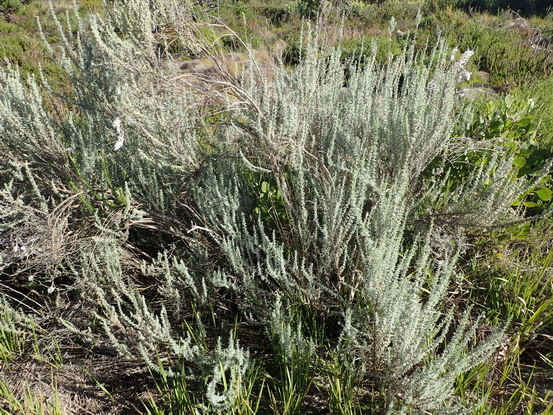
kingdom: Plantae
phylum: Tracheophyta
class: Magnoliopsida
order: Asterales
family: Asteraceae
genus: Eriocephalus
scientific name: Eriocephalus racemosus
